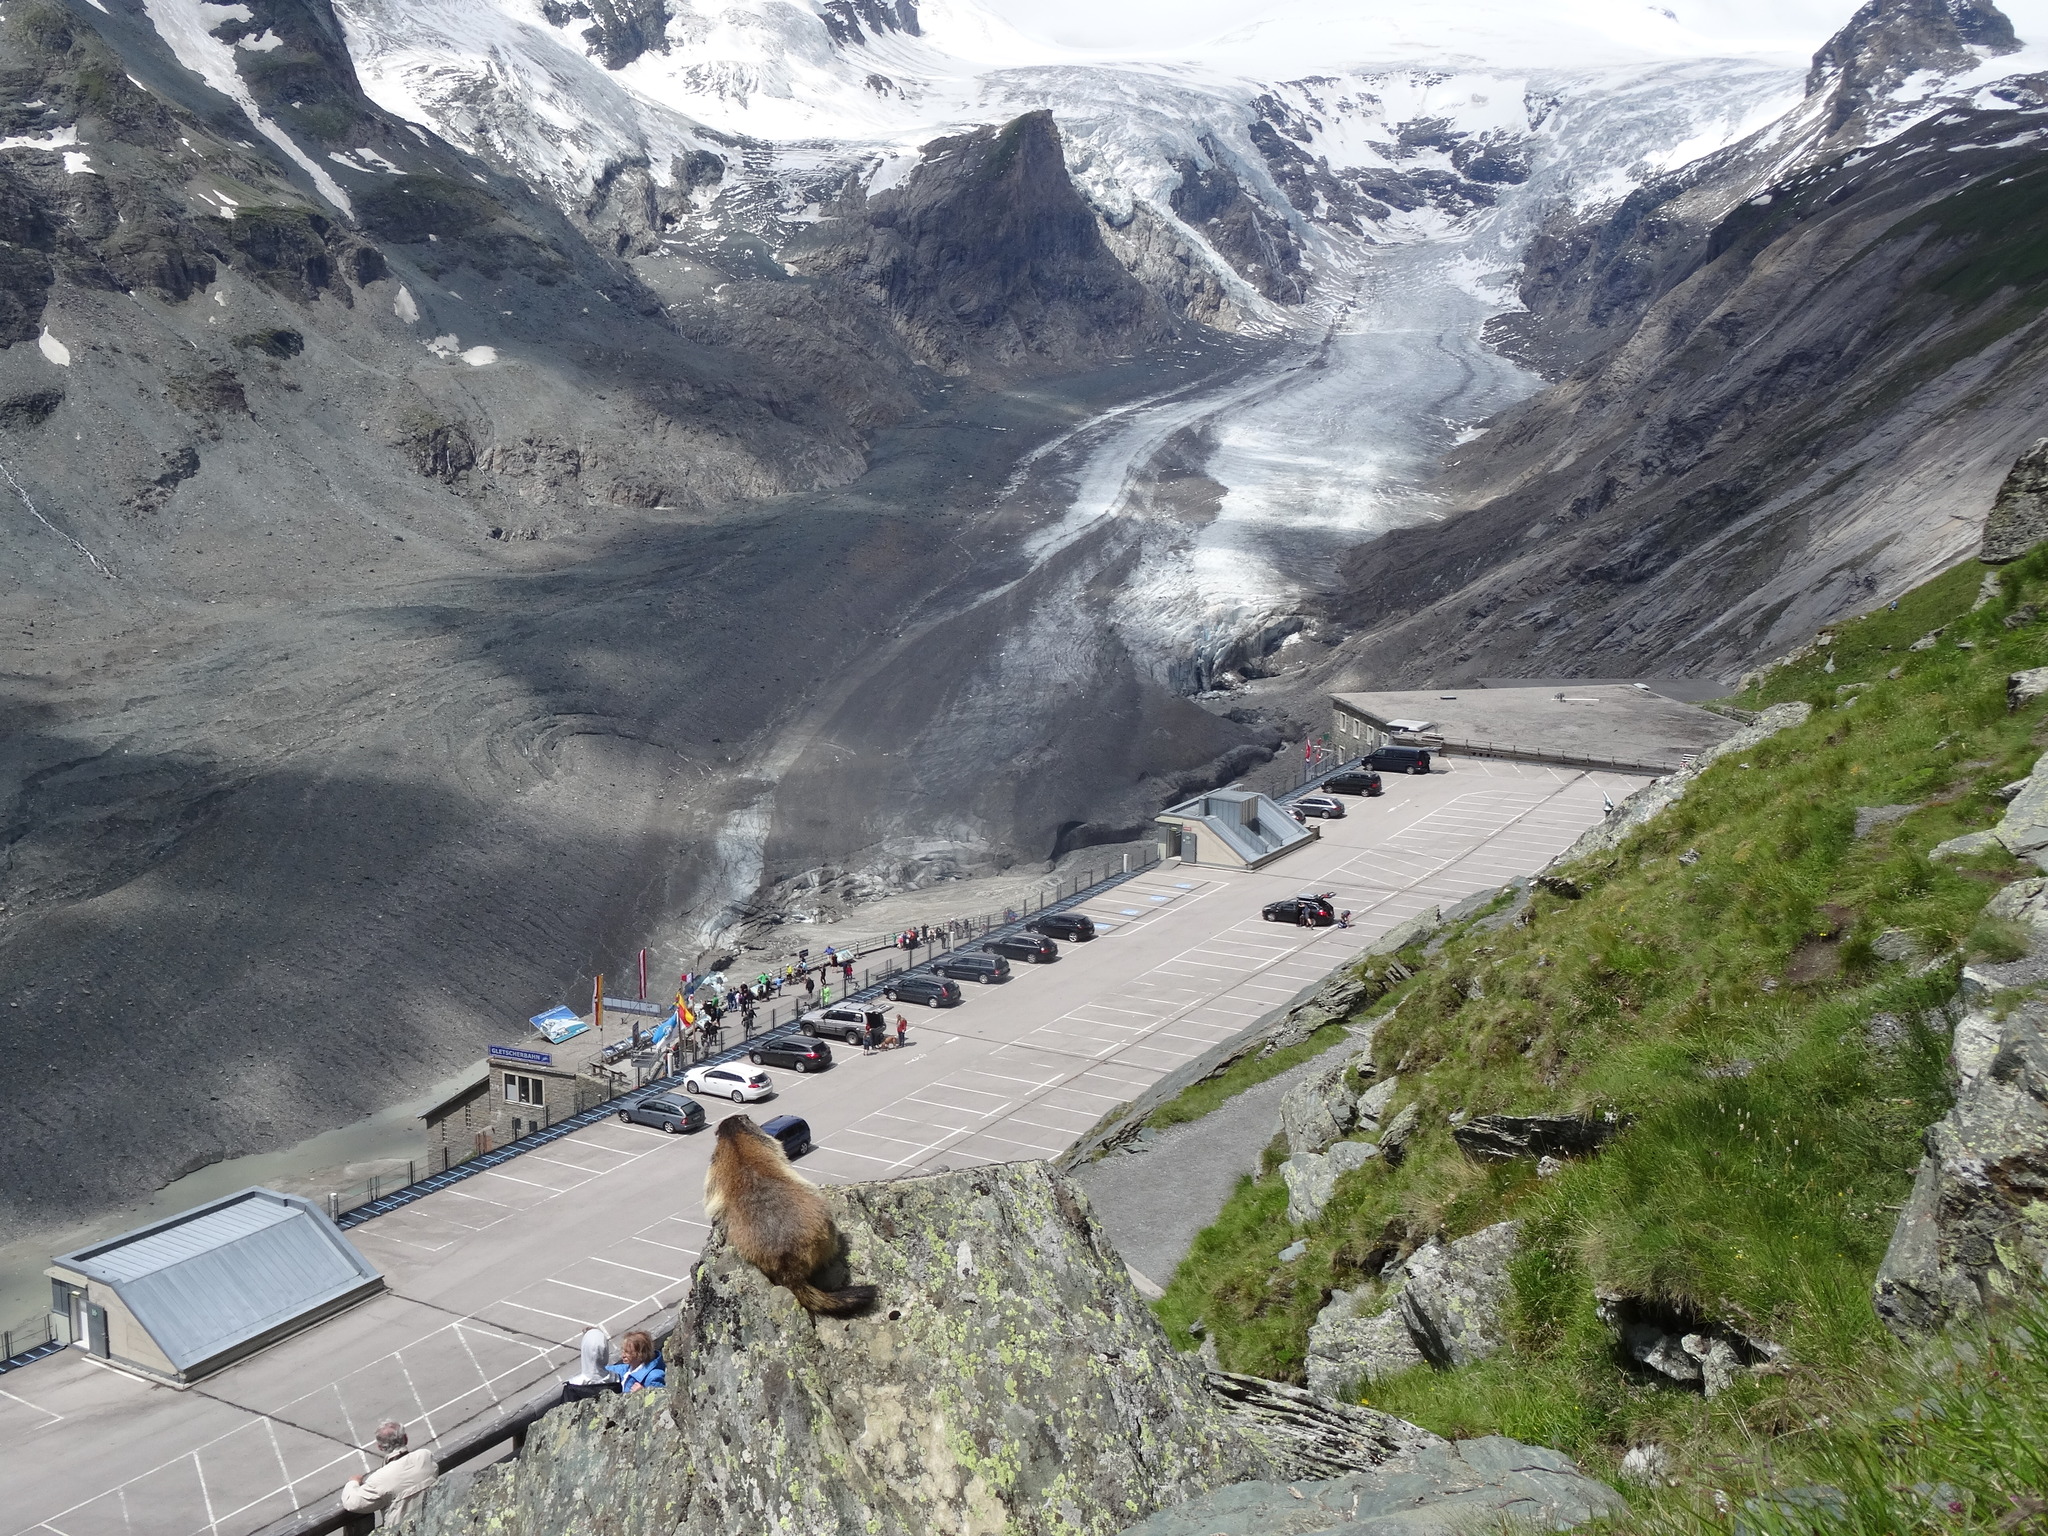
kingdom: Animalia
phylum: Chordata
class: Mammalia
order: Rodentia
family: Sciuridae
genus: Marmota
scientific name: Marmota marmota
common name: Alpine marmot
